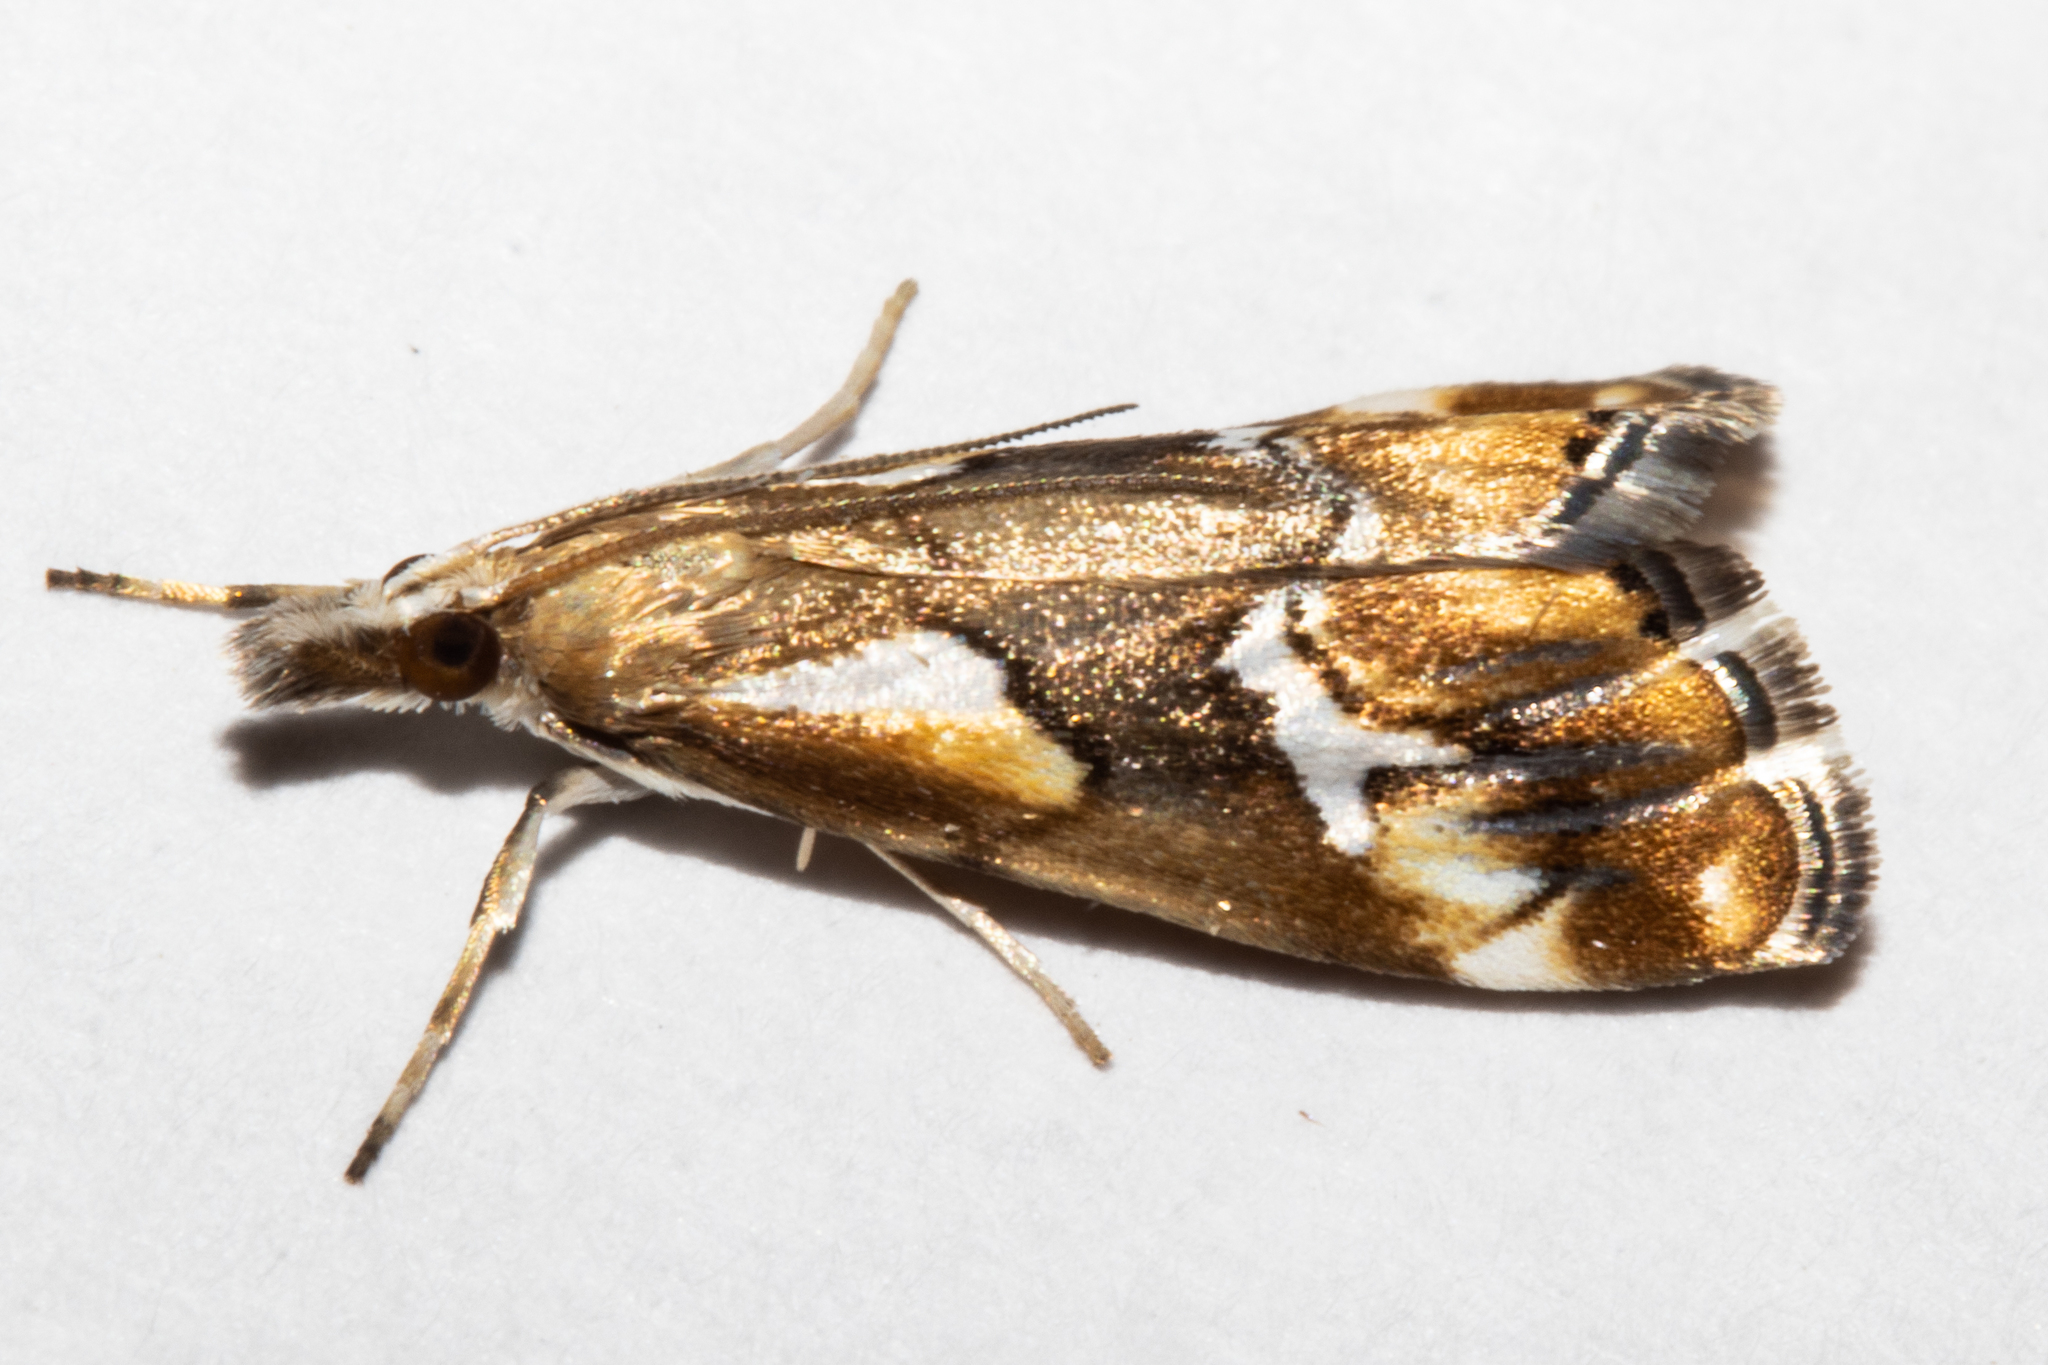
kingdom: Animalia
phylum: Arthropoda
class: Insecta
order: Lepidoptera
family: Crambidae
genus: Glaucocharis
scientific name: Glaucocharis interruptus
